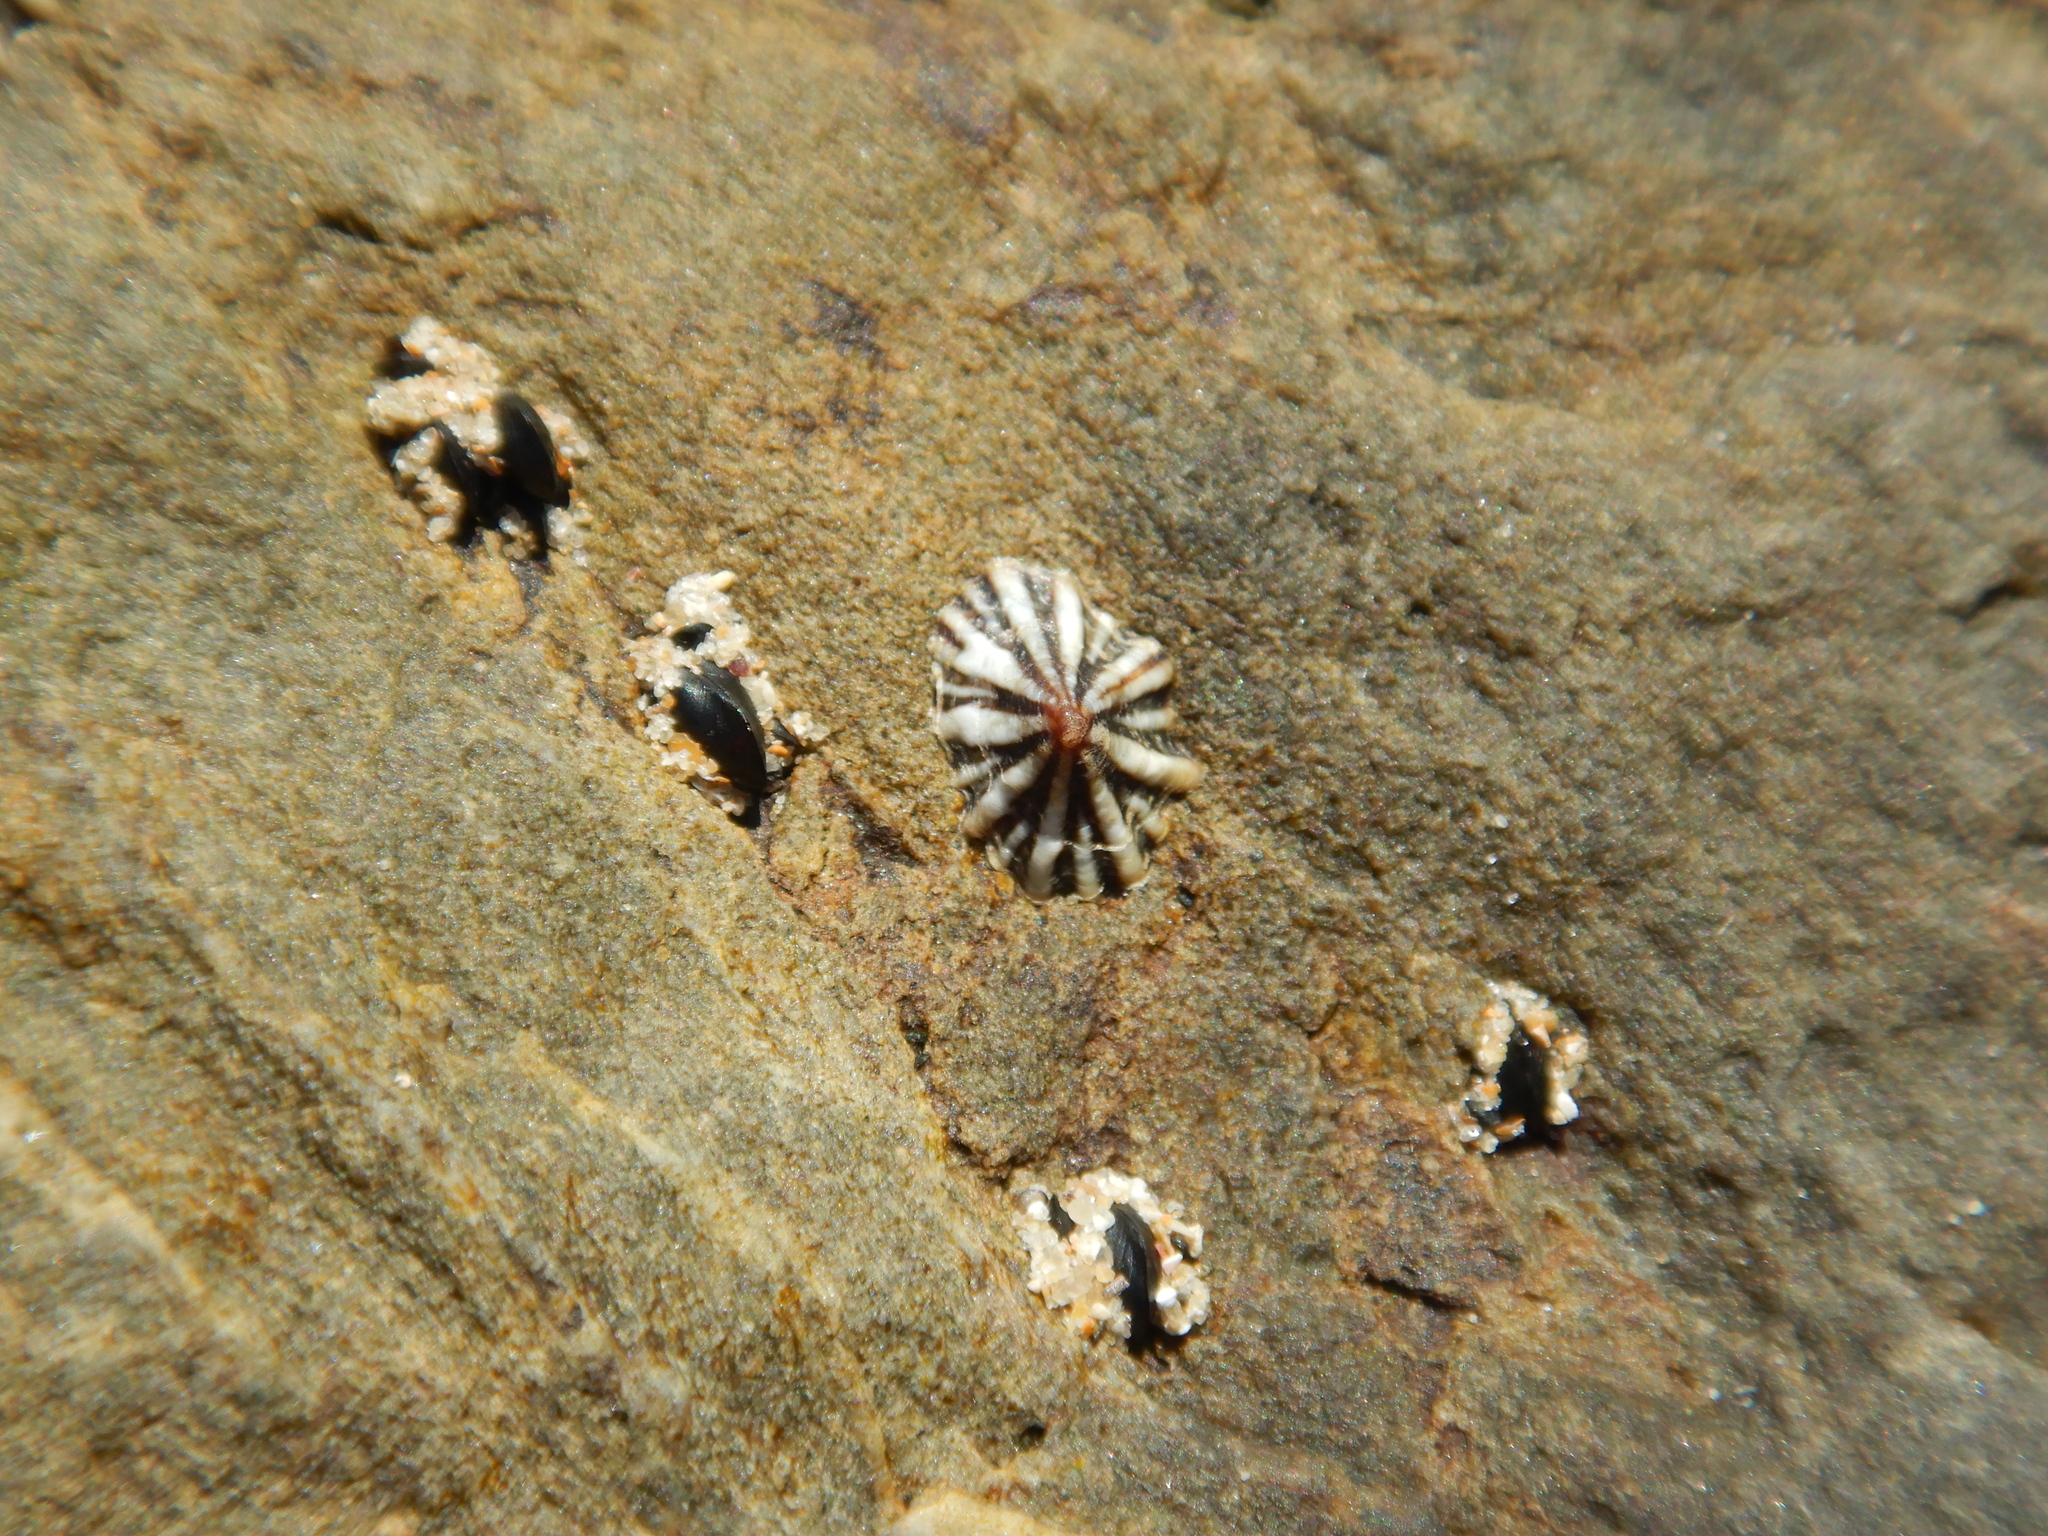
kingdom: Animalia
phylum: Mollusca
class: Gastropoda
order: Siphonariida
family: Siphonariidae
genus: Siphonaria
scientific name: Siphonaria diemenensis
